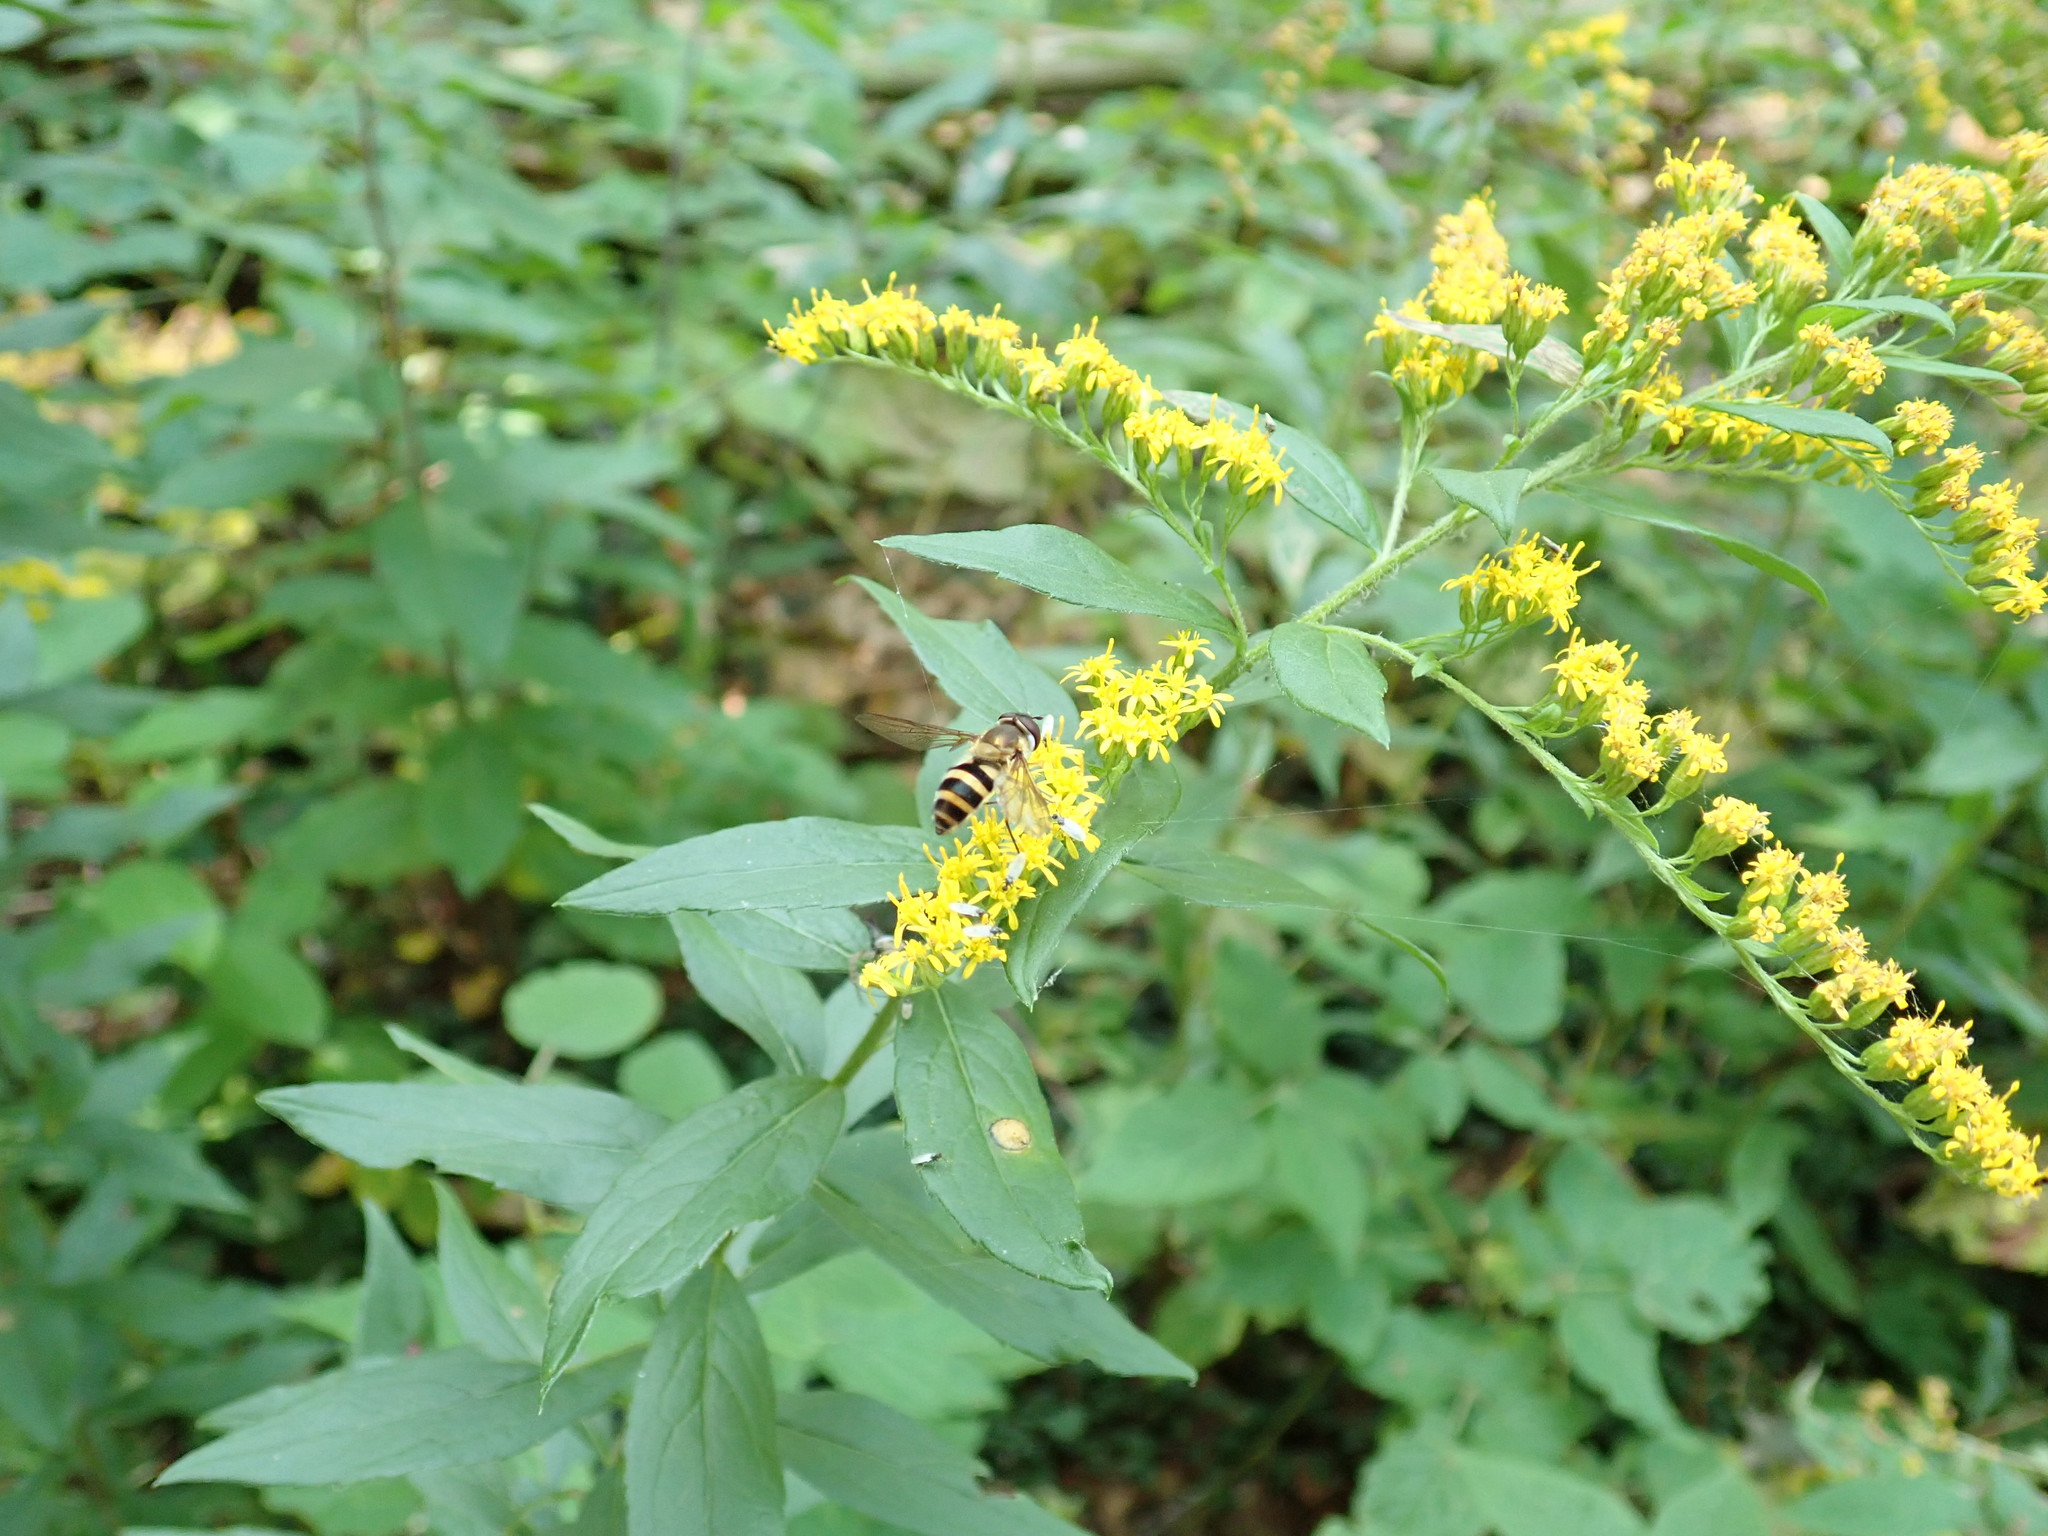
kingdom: Animalia
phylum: Arthropoda
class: Insecta
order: Diptera
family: Syrphidae
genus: Epistrophe
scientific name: Epistrophe grossulariae
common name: Black-horned smoothtail
